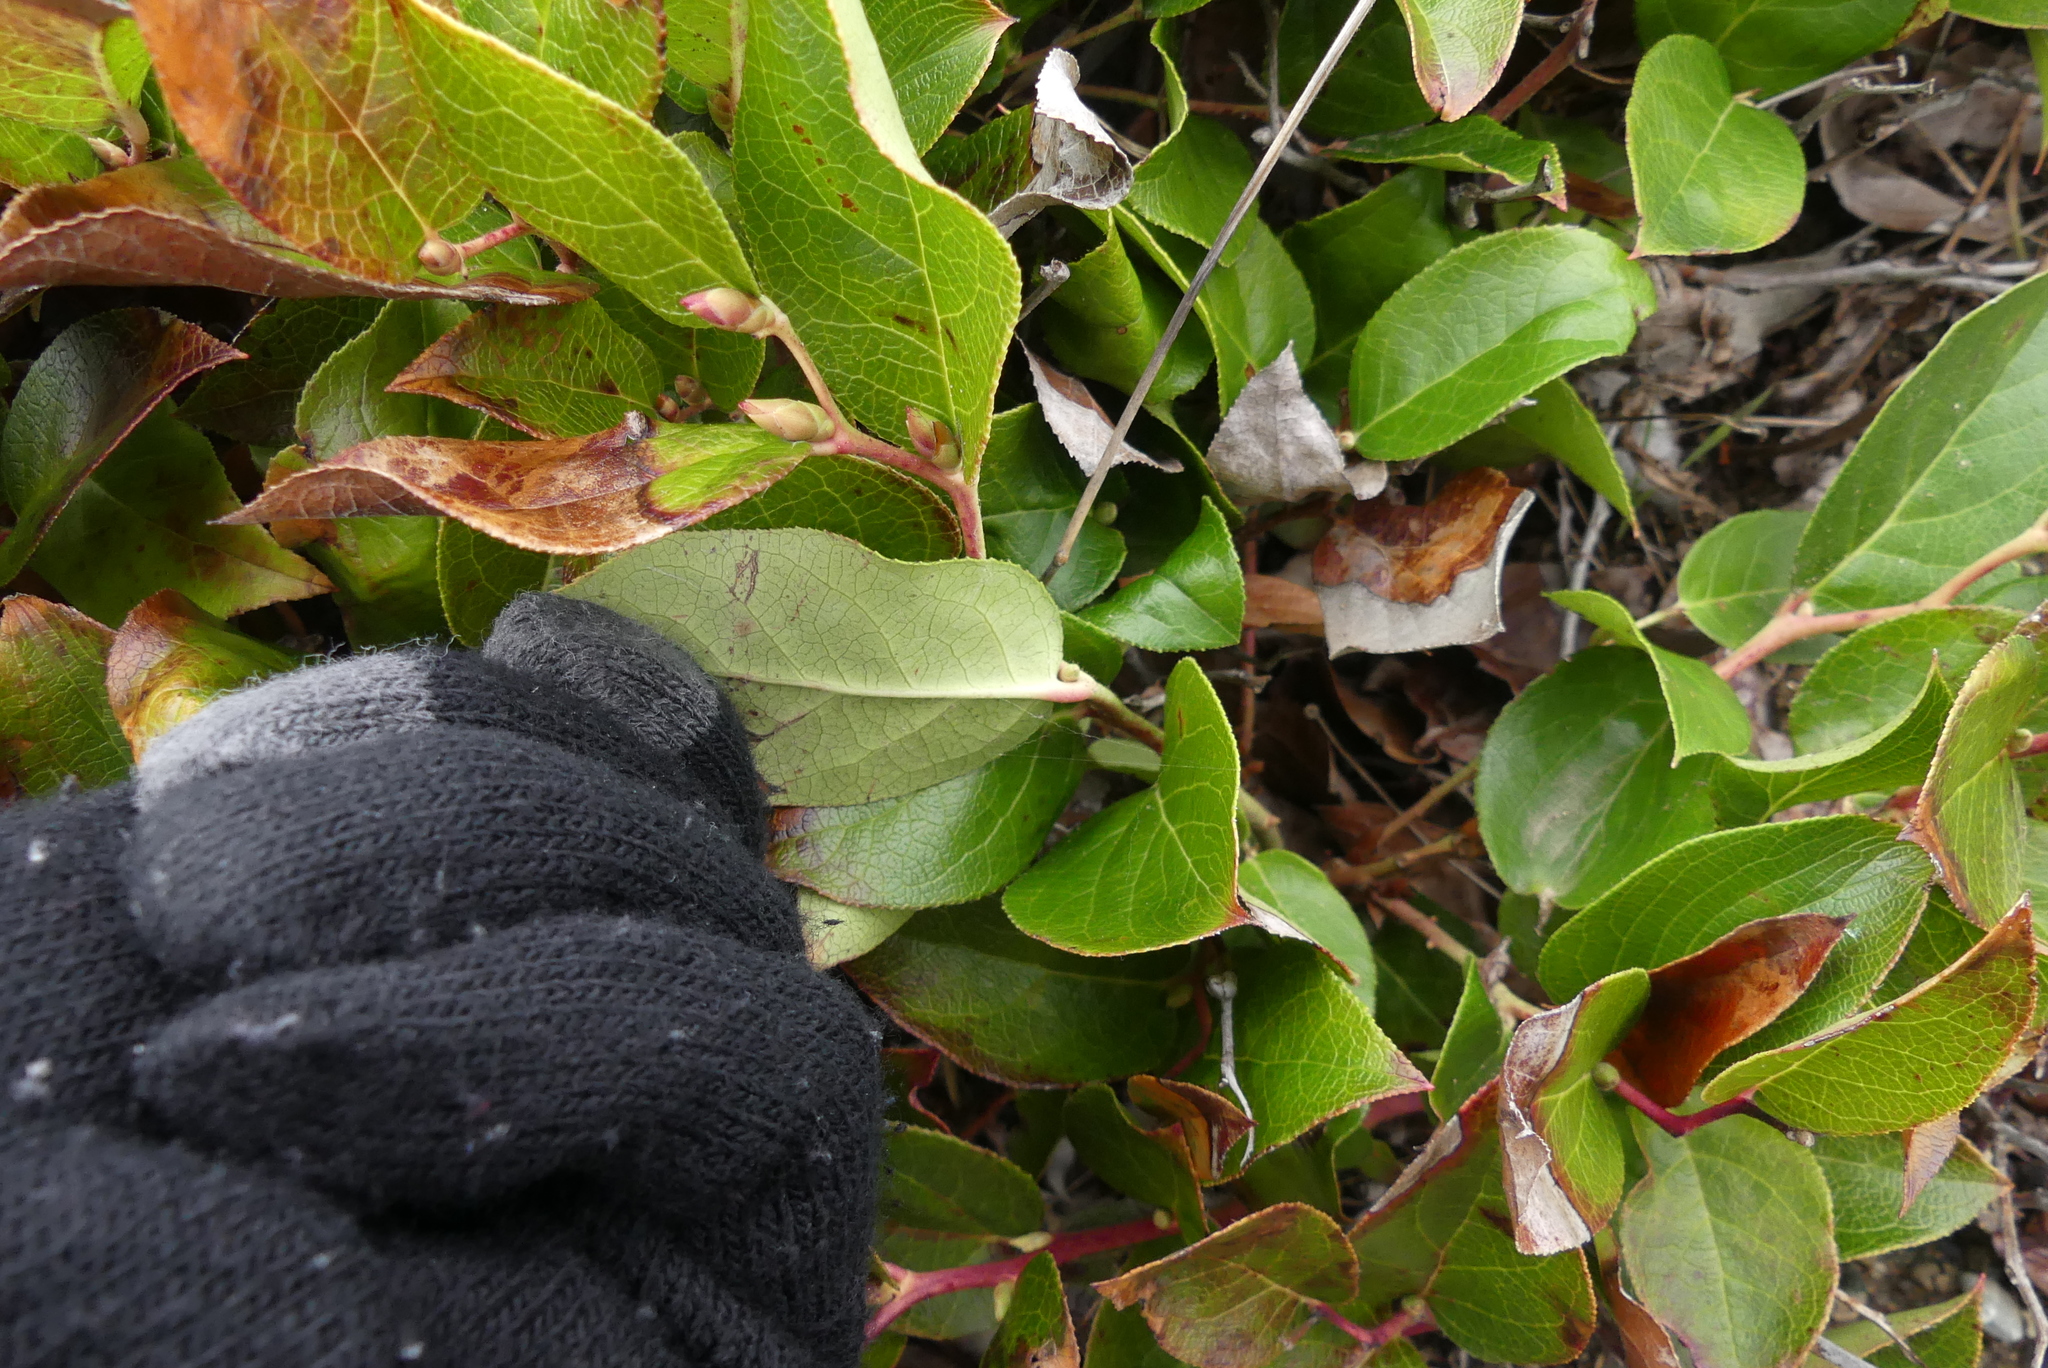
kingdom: Plantae
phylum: Tracheophyta
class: Magnoliopsida
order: Ericales
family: Ericaceae
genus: Gaultheria
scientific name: Gaultheria shallon
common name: Shallon
